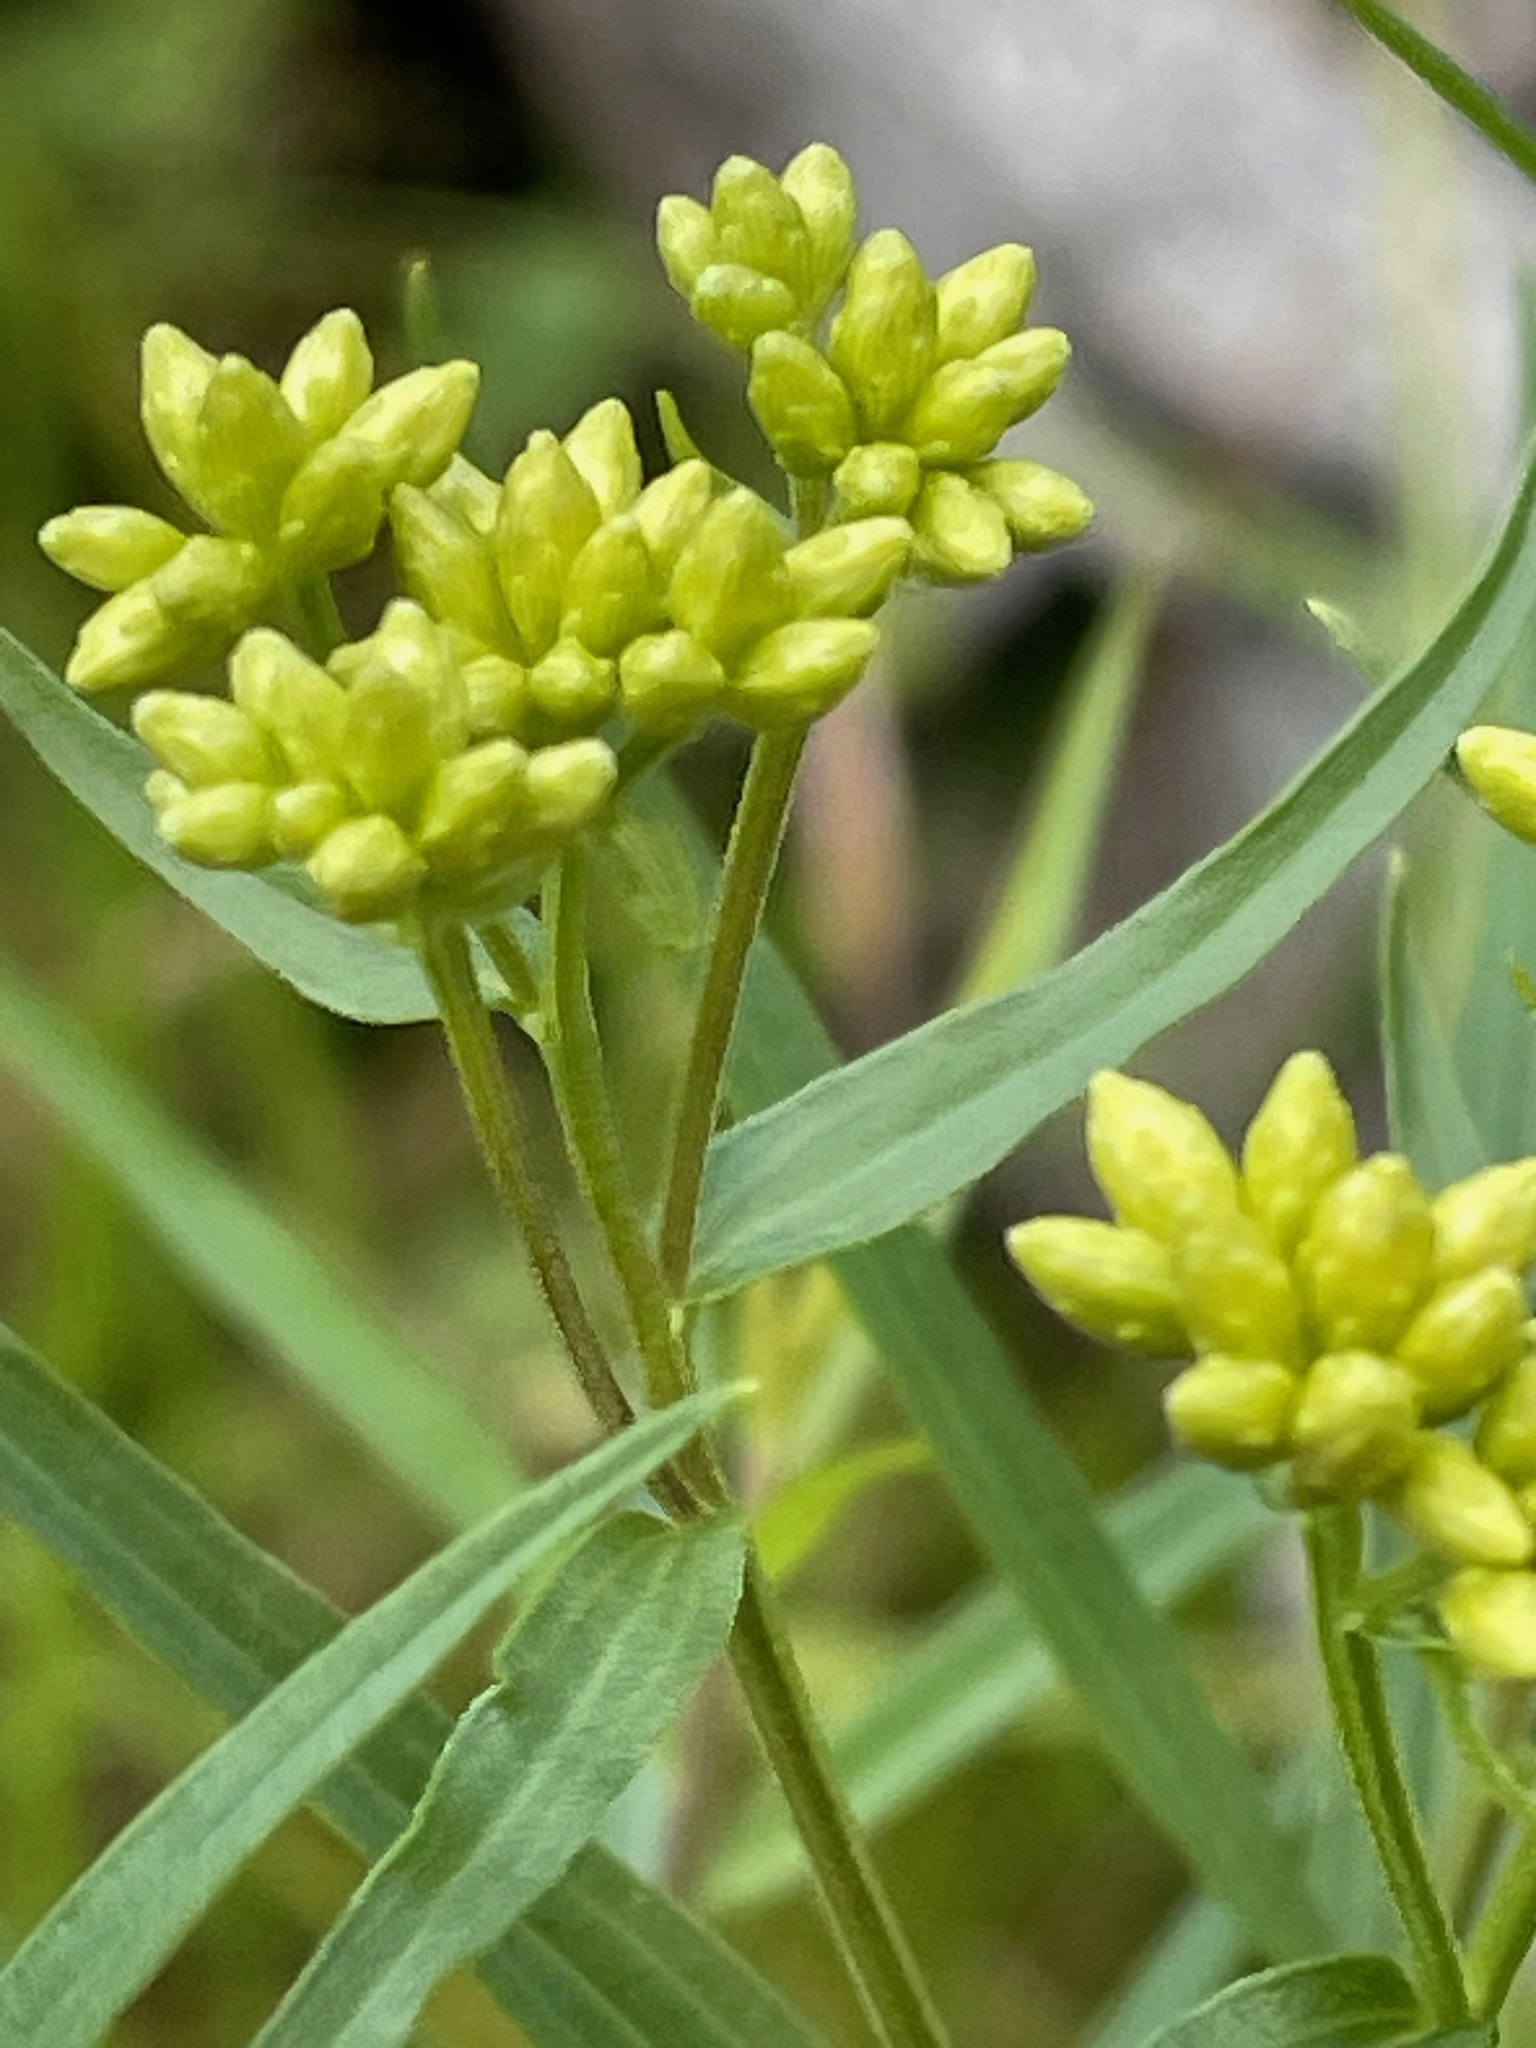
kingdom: Plantae
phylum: Tracheophyta
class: Magnoliopsida
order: Asterales
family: Asteraceae
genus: Euthamia
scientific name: Euthamia graminifolia
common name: Common goldentop
